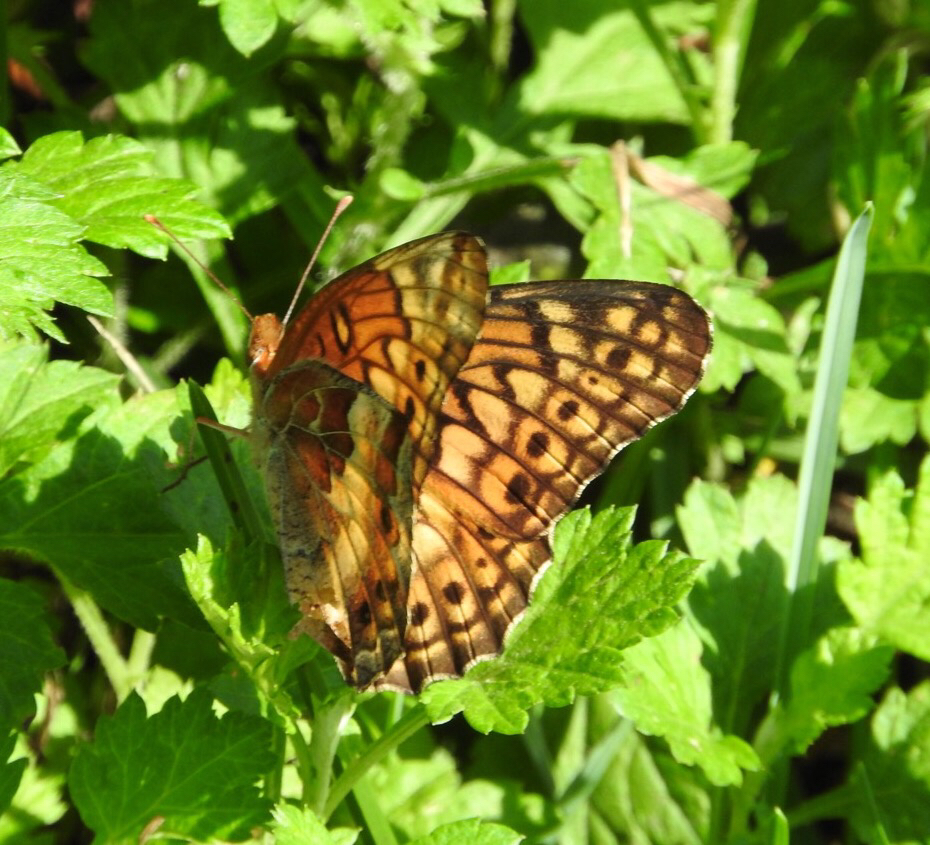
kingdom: Animalia
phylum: Arthropoda
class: Insecta
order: Lepidoptera
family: Nymphalidae
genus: Euptoieta
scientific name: Euptoieta claudia
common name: Variegated fritillary
